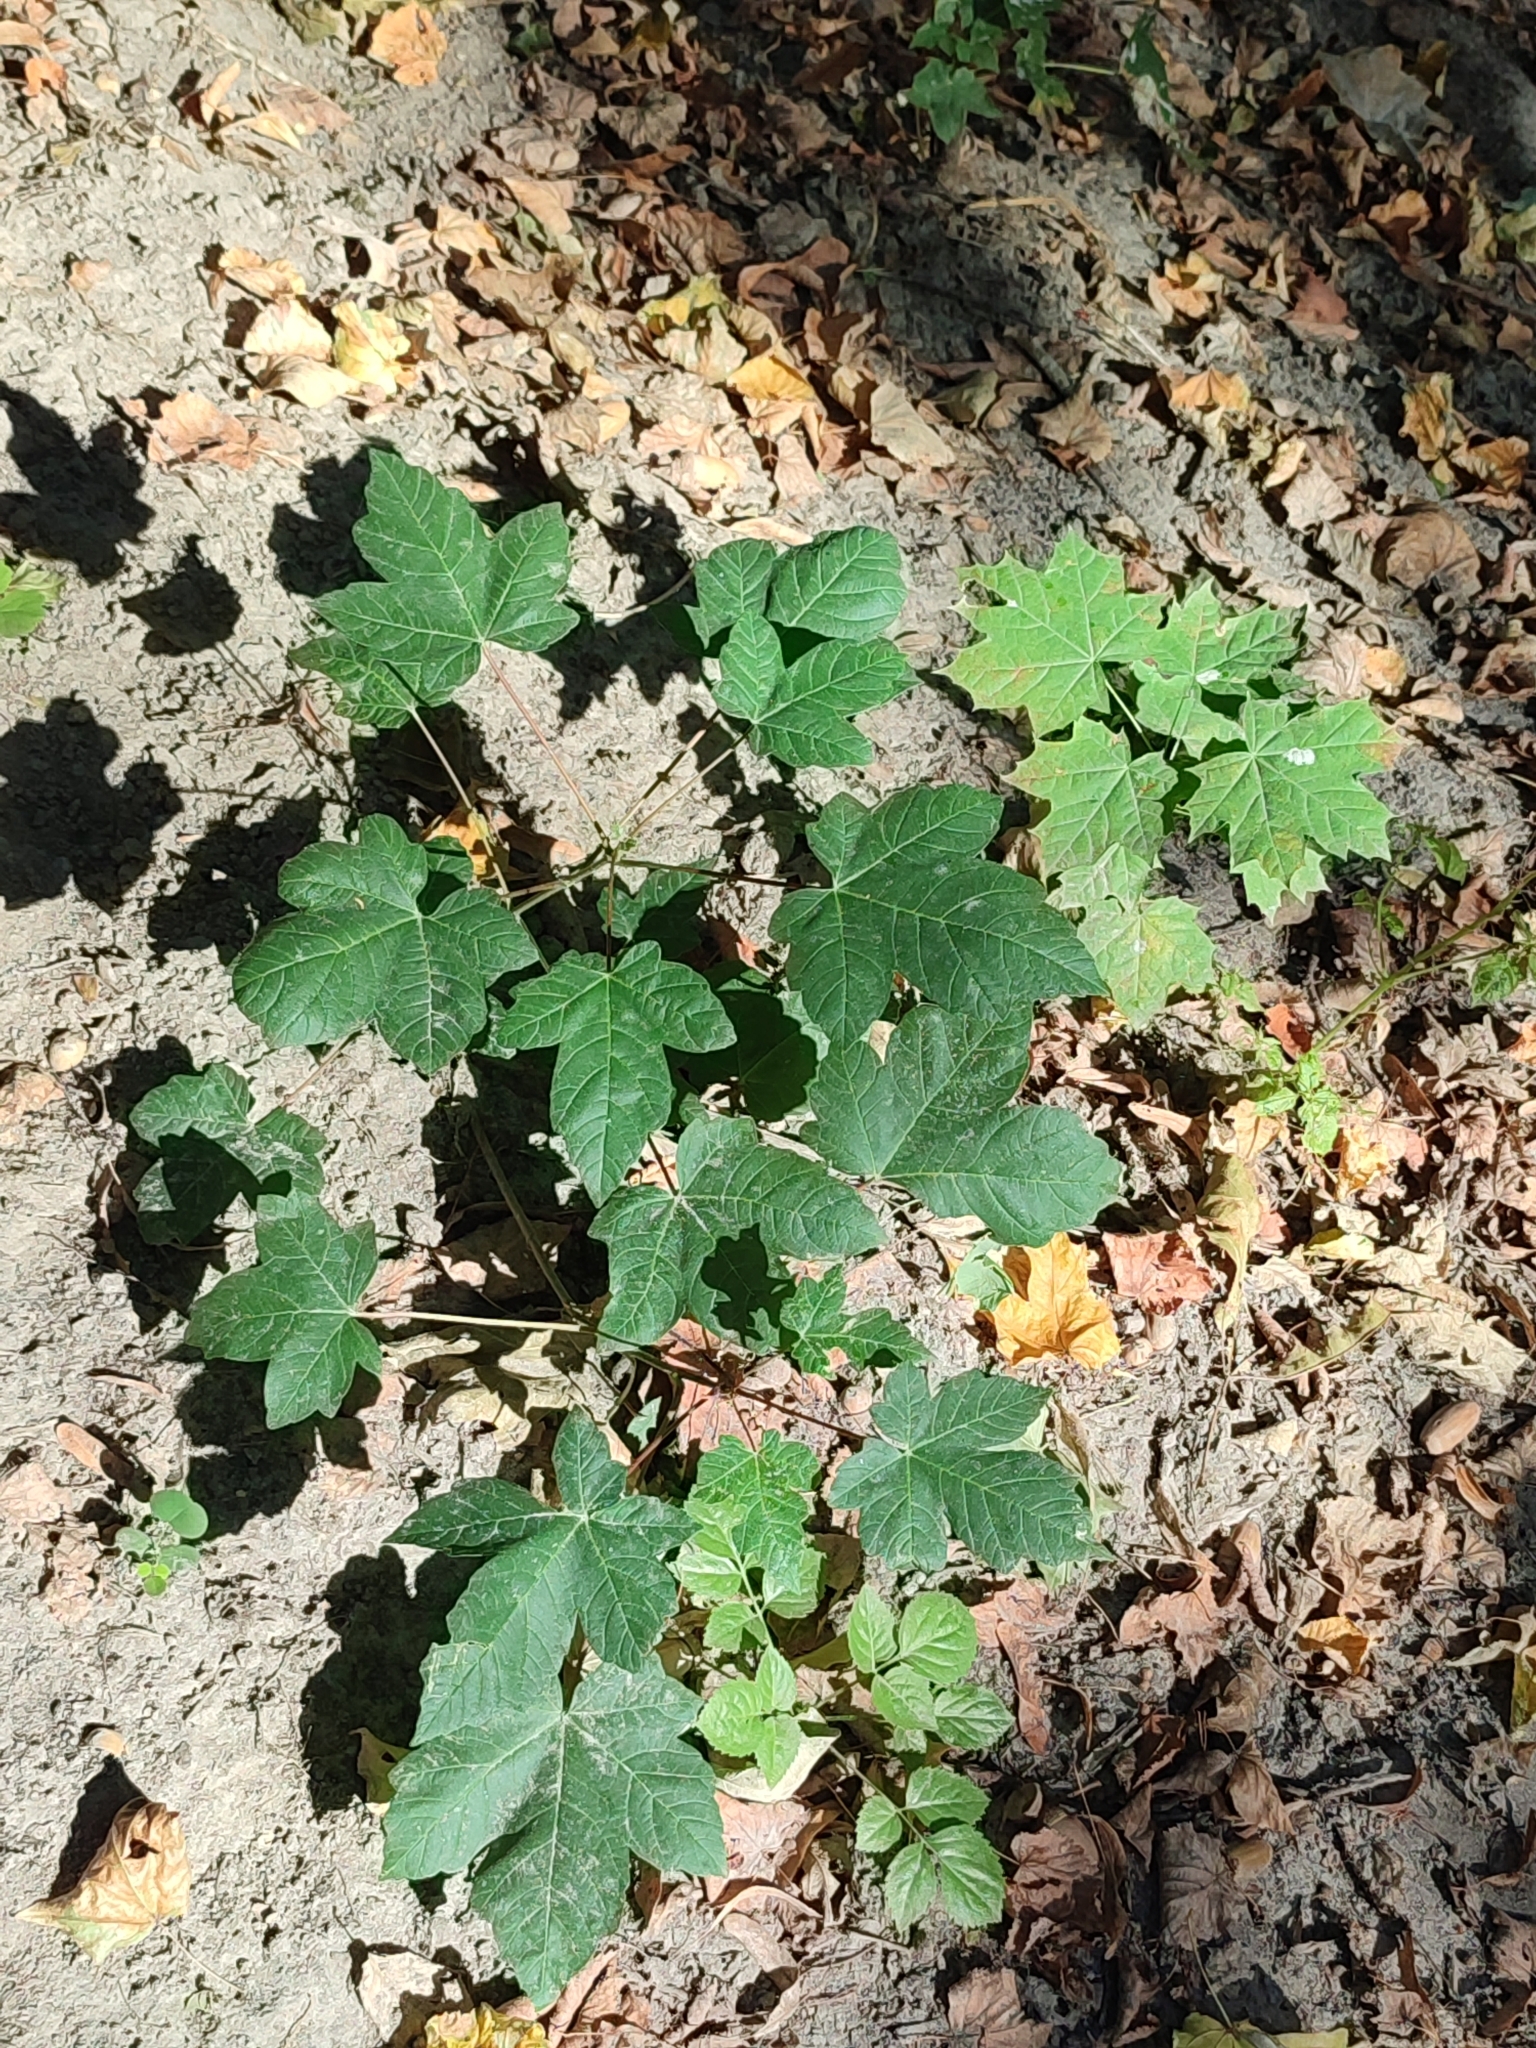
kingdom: Plantae
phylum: Tracheophyta
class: Magnoliopsida
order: Sapindales
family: Sapindaceae
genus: Acer
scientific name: Acer pseudoplatanus
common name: Sycamore
